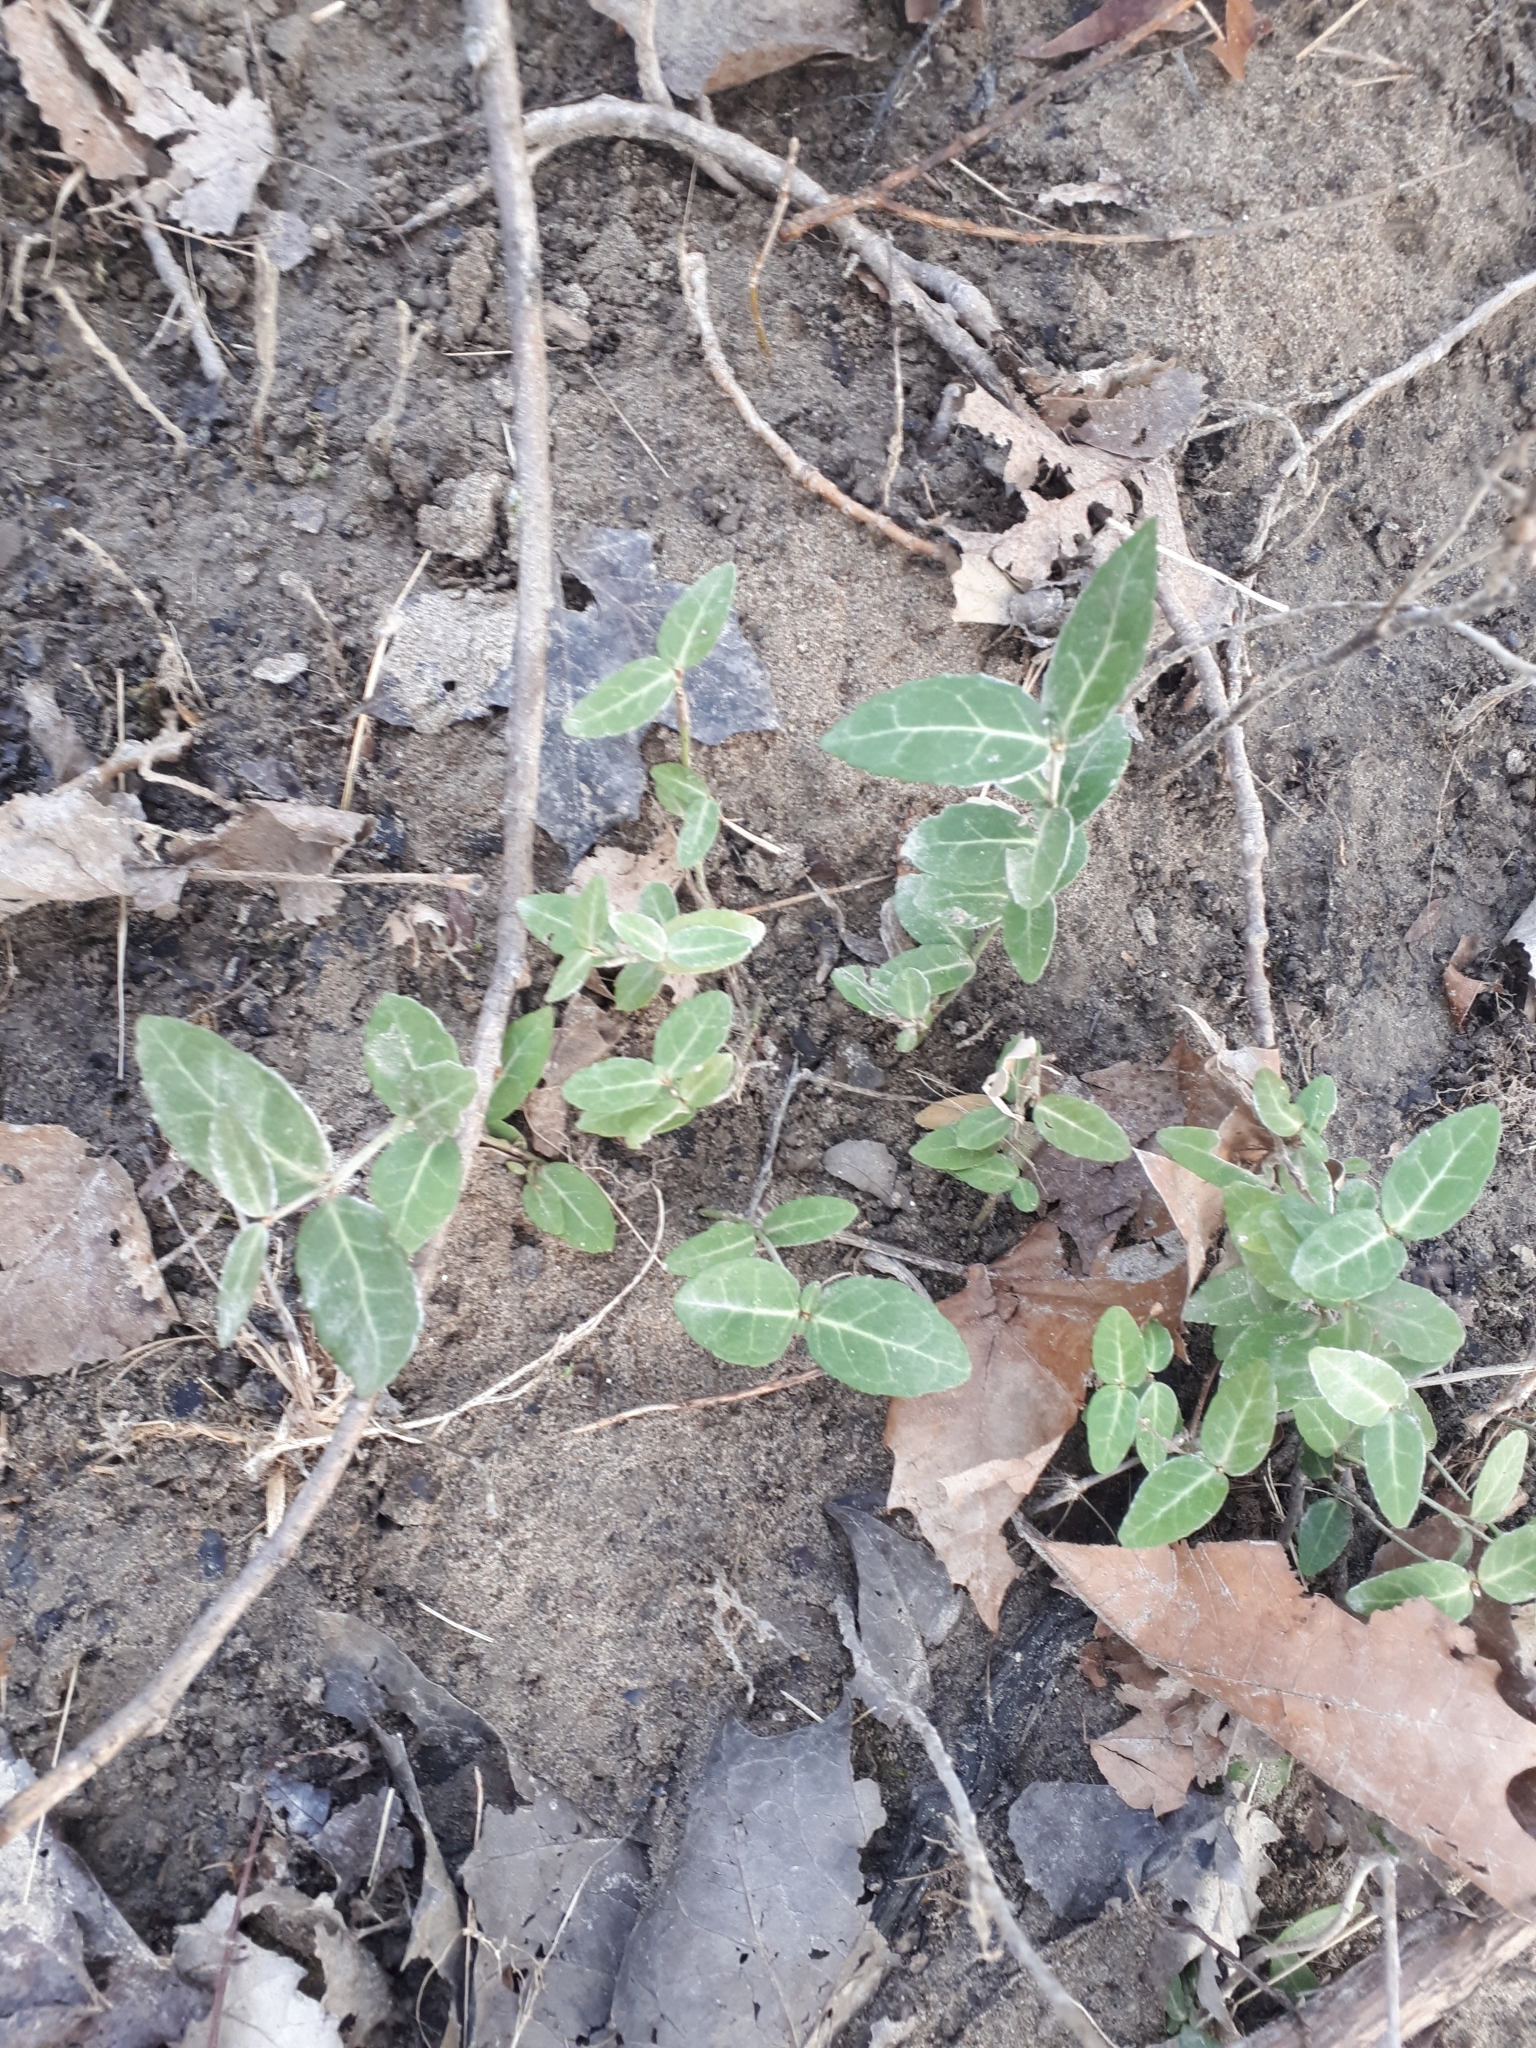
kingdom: Plantae
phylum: Tracheophyta
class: Magnoliopsida
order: Celastrales
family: Celastraceae
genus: Euonymus
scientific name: Euonymus fortunei
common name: Climbing euonymus
